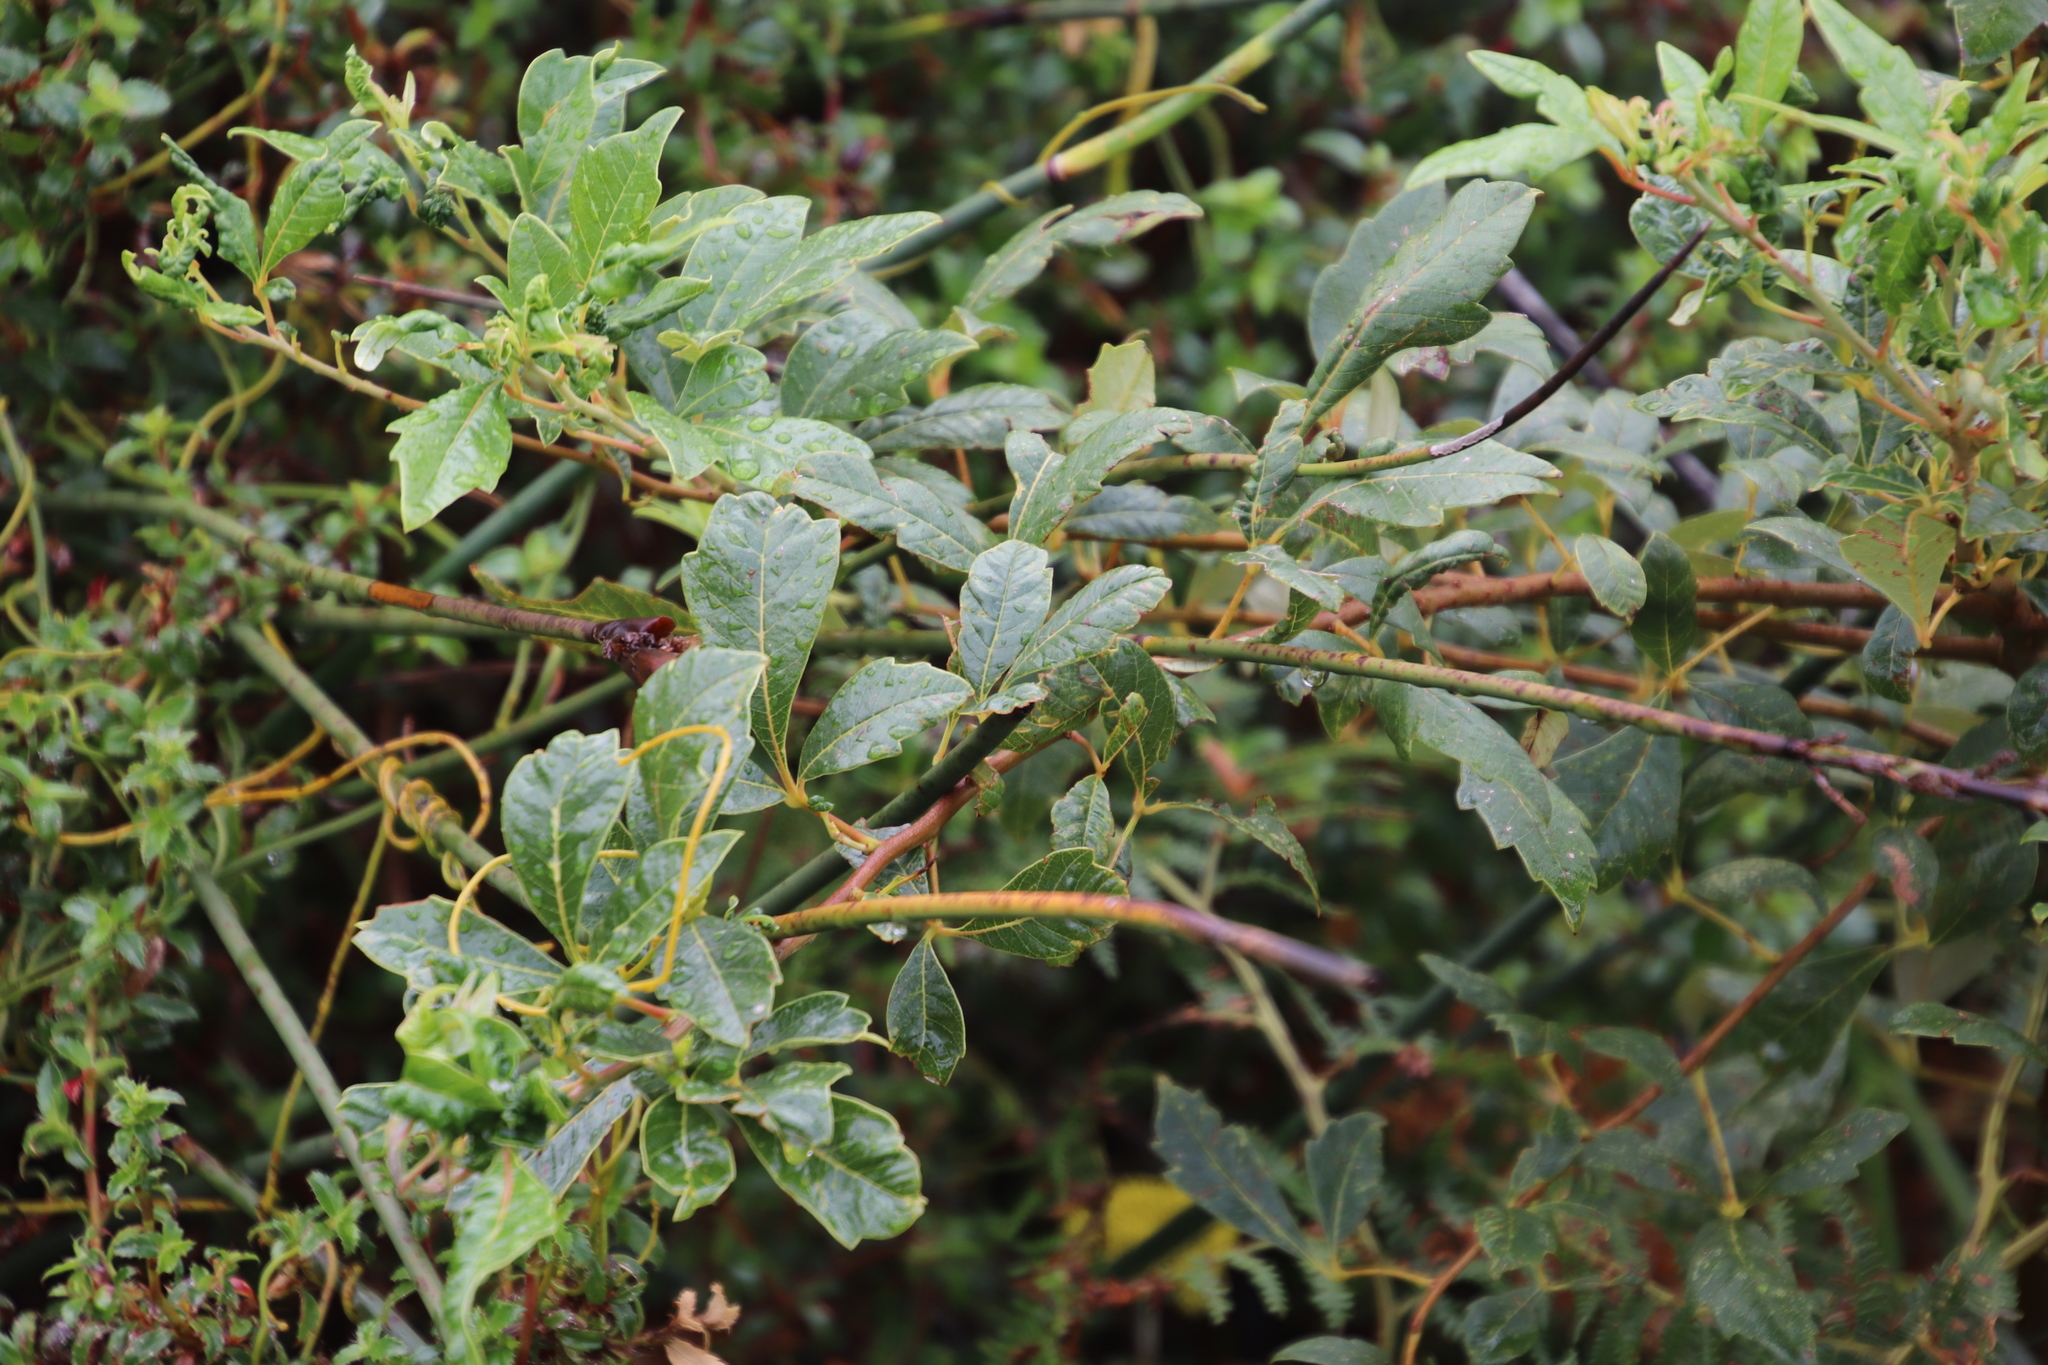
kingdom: Plantae
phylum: Tracheophyta
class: Magnoliopsida
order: Sapindales
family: Anacardiaceae
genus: Searsia
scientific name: Searsia tomentosa
